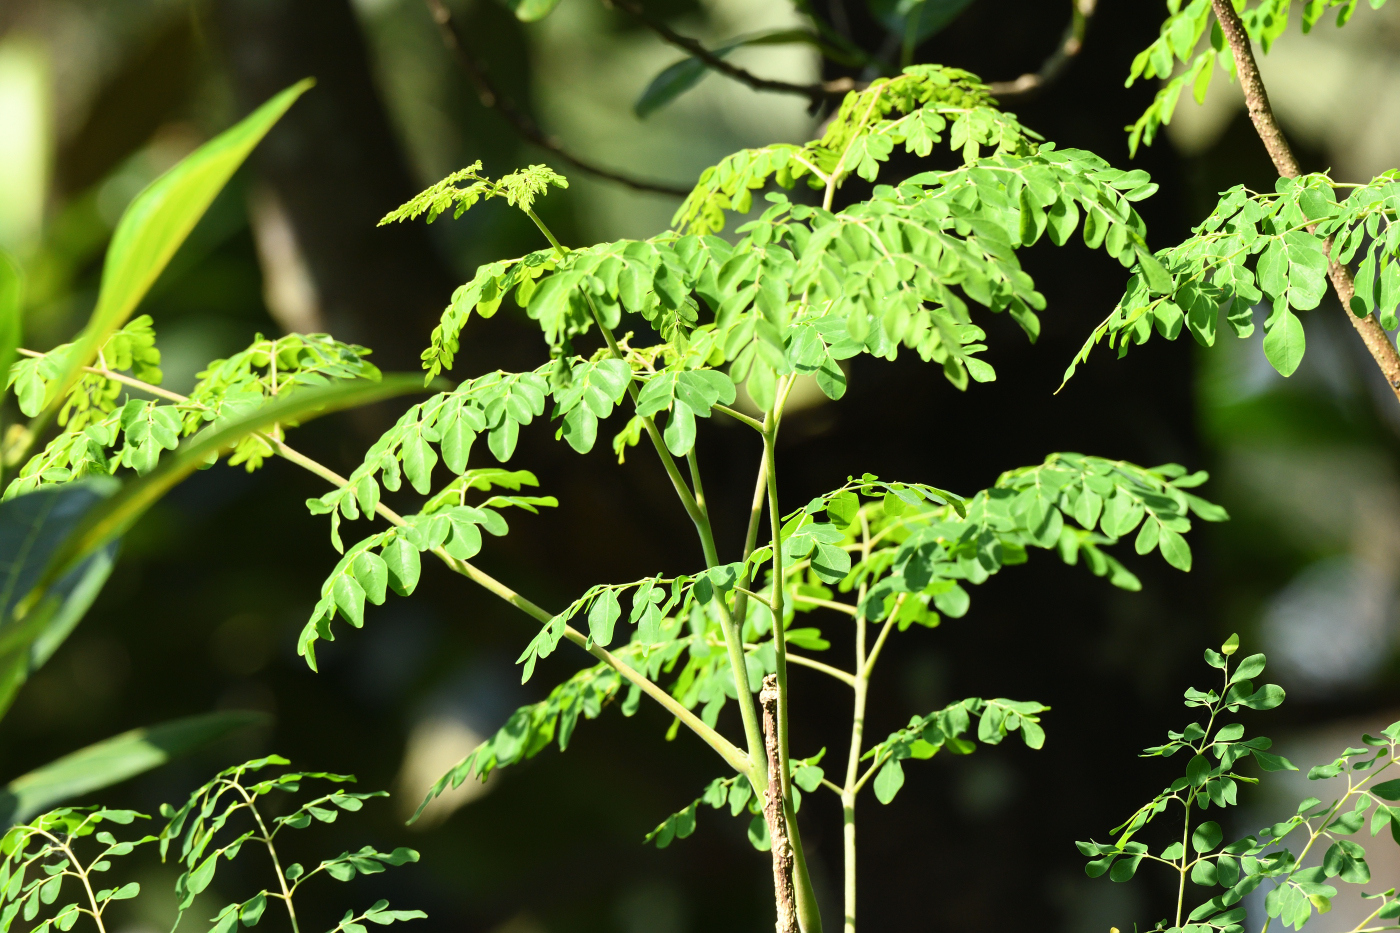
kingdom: Plantae
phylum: Tracheophyta
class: Magnoliopsida
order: Brassicales
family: Moringaceae
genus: Moringa
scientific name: Moringa oleifera
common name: Horseradish-tree
